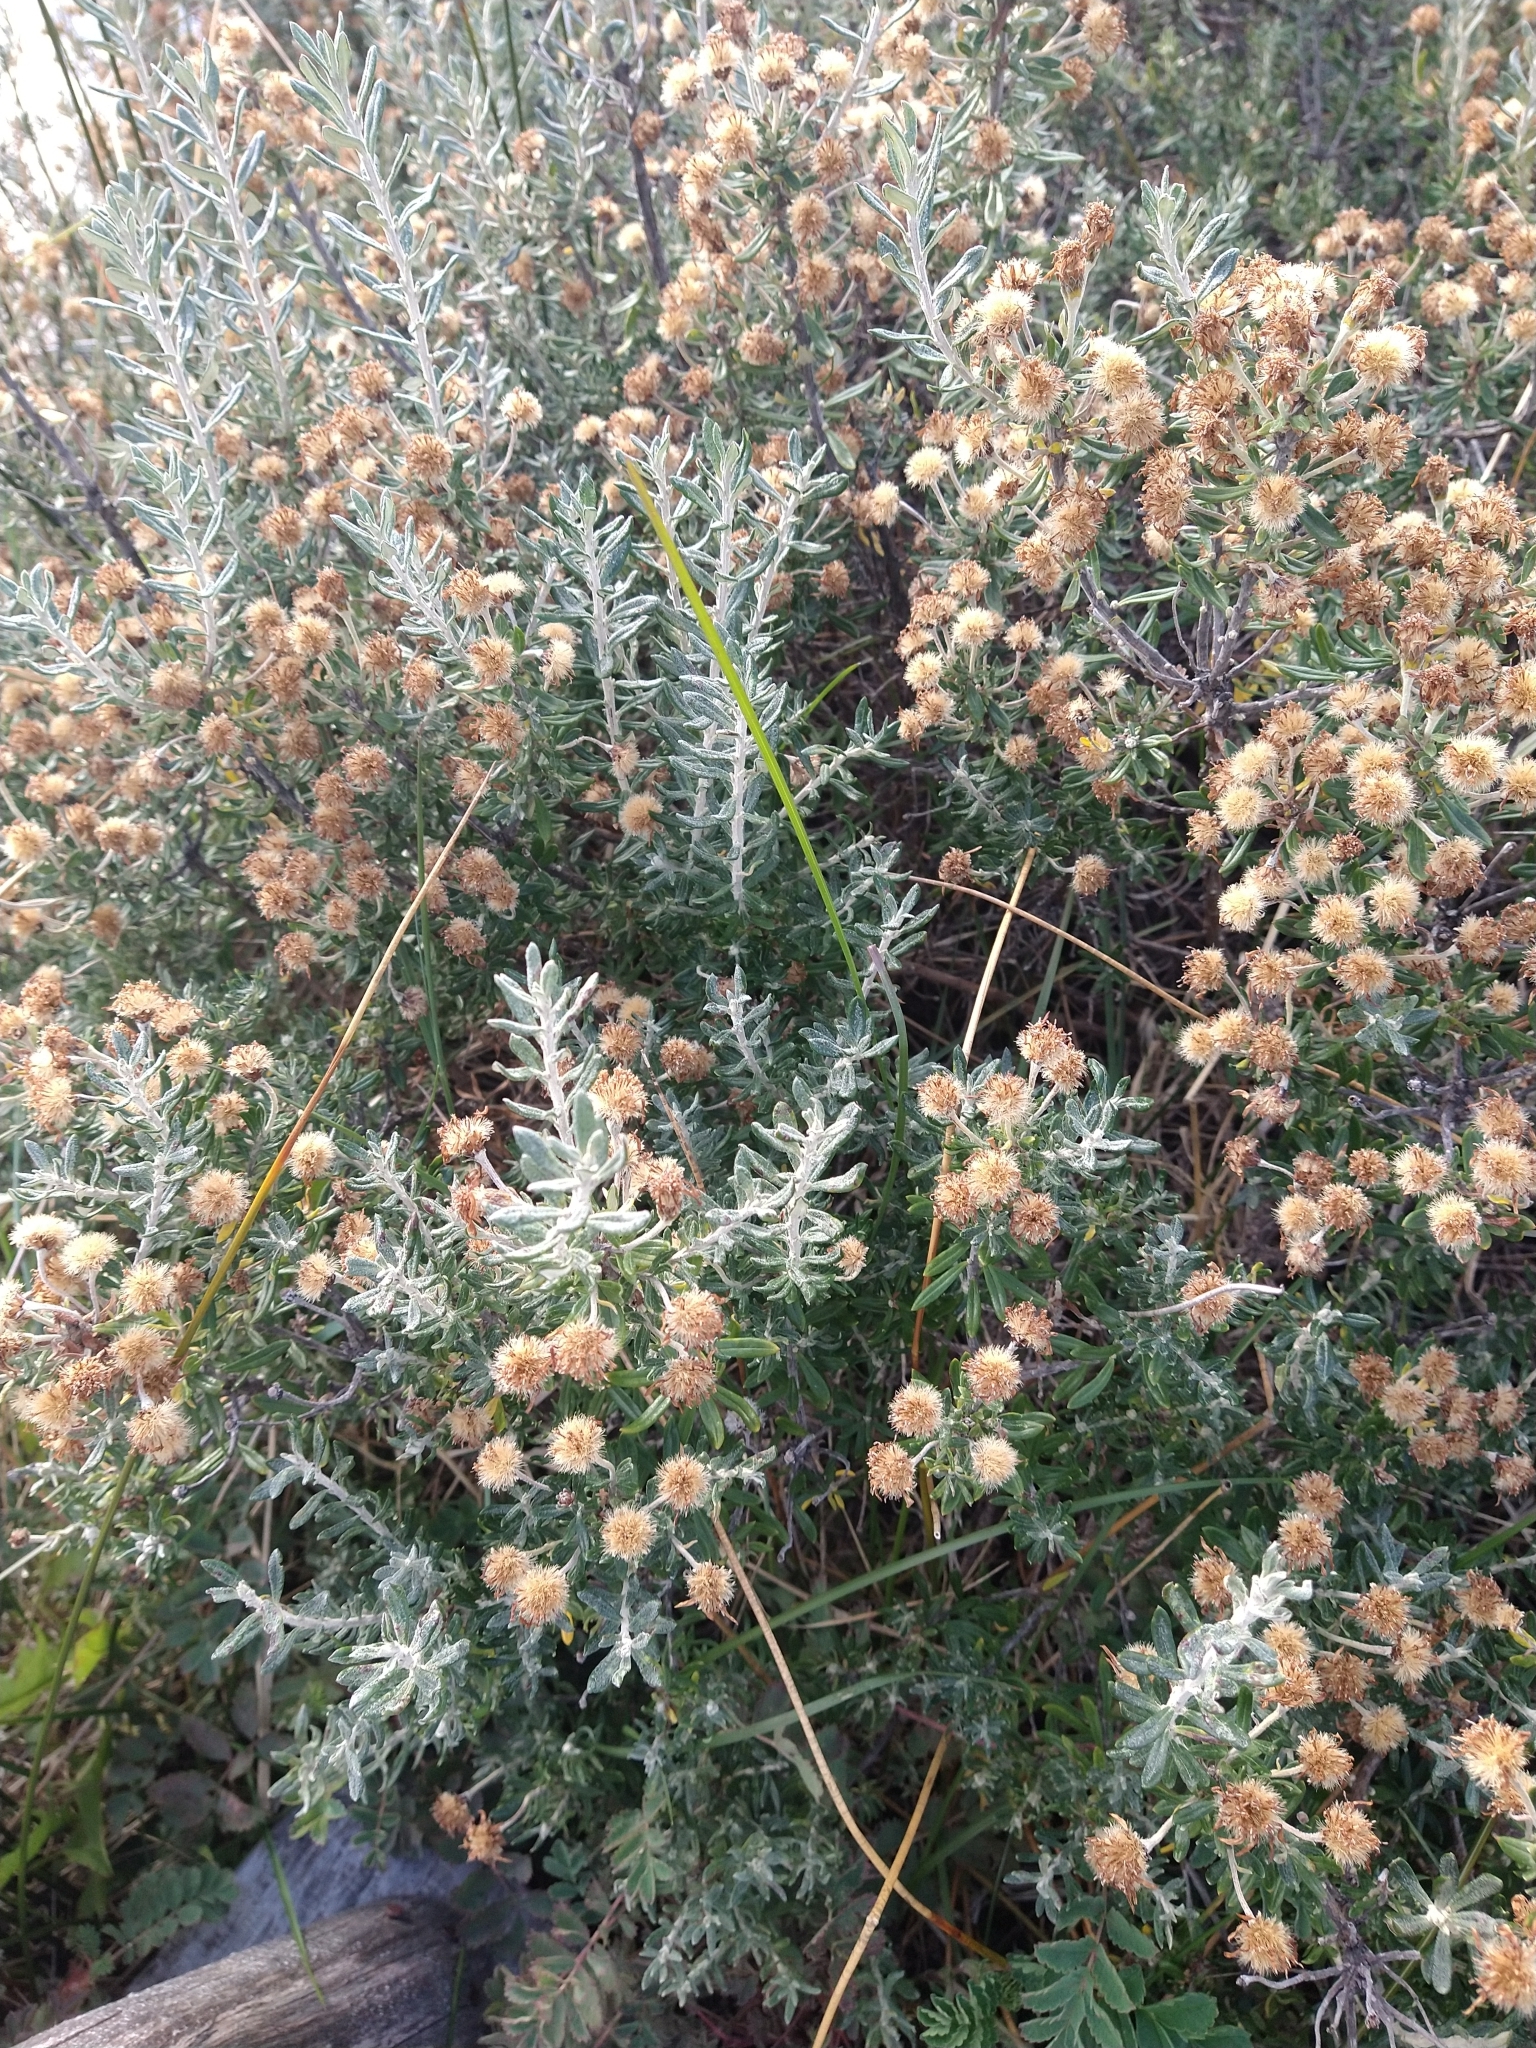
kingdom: Plantae
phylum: Tracheophyta
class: Magnoliopsida
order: Asterales
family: Asteraceae
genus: Chiliotrichum
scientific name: Chiliotrichum diffusum
